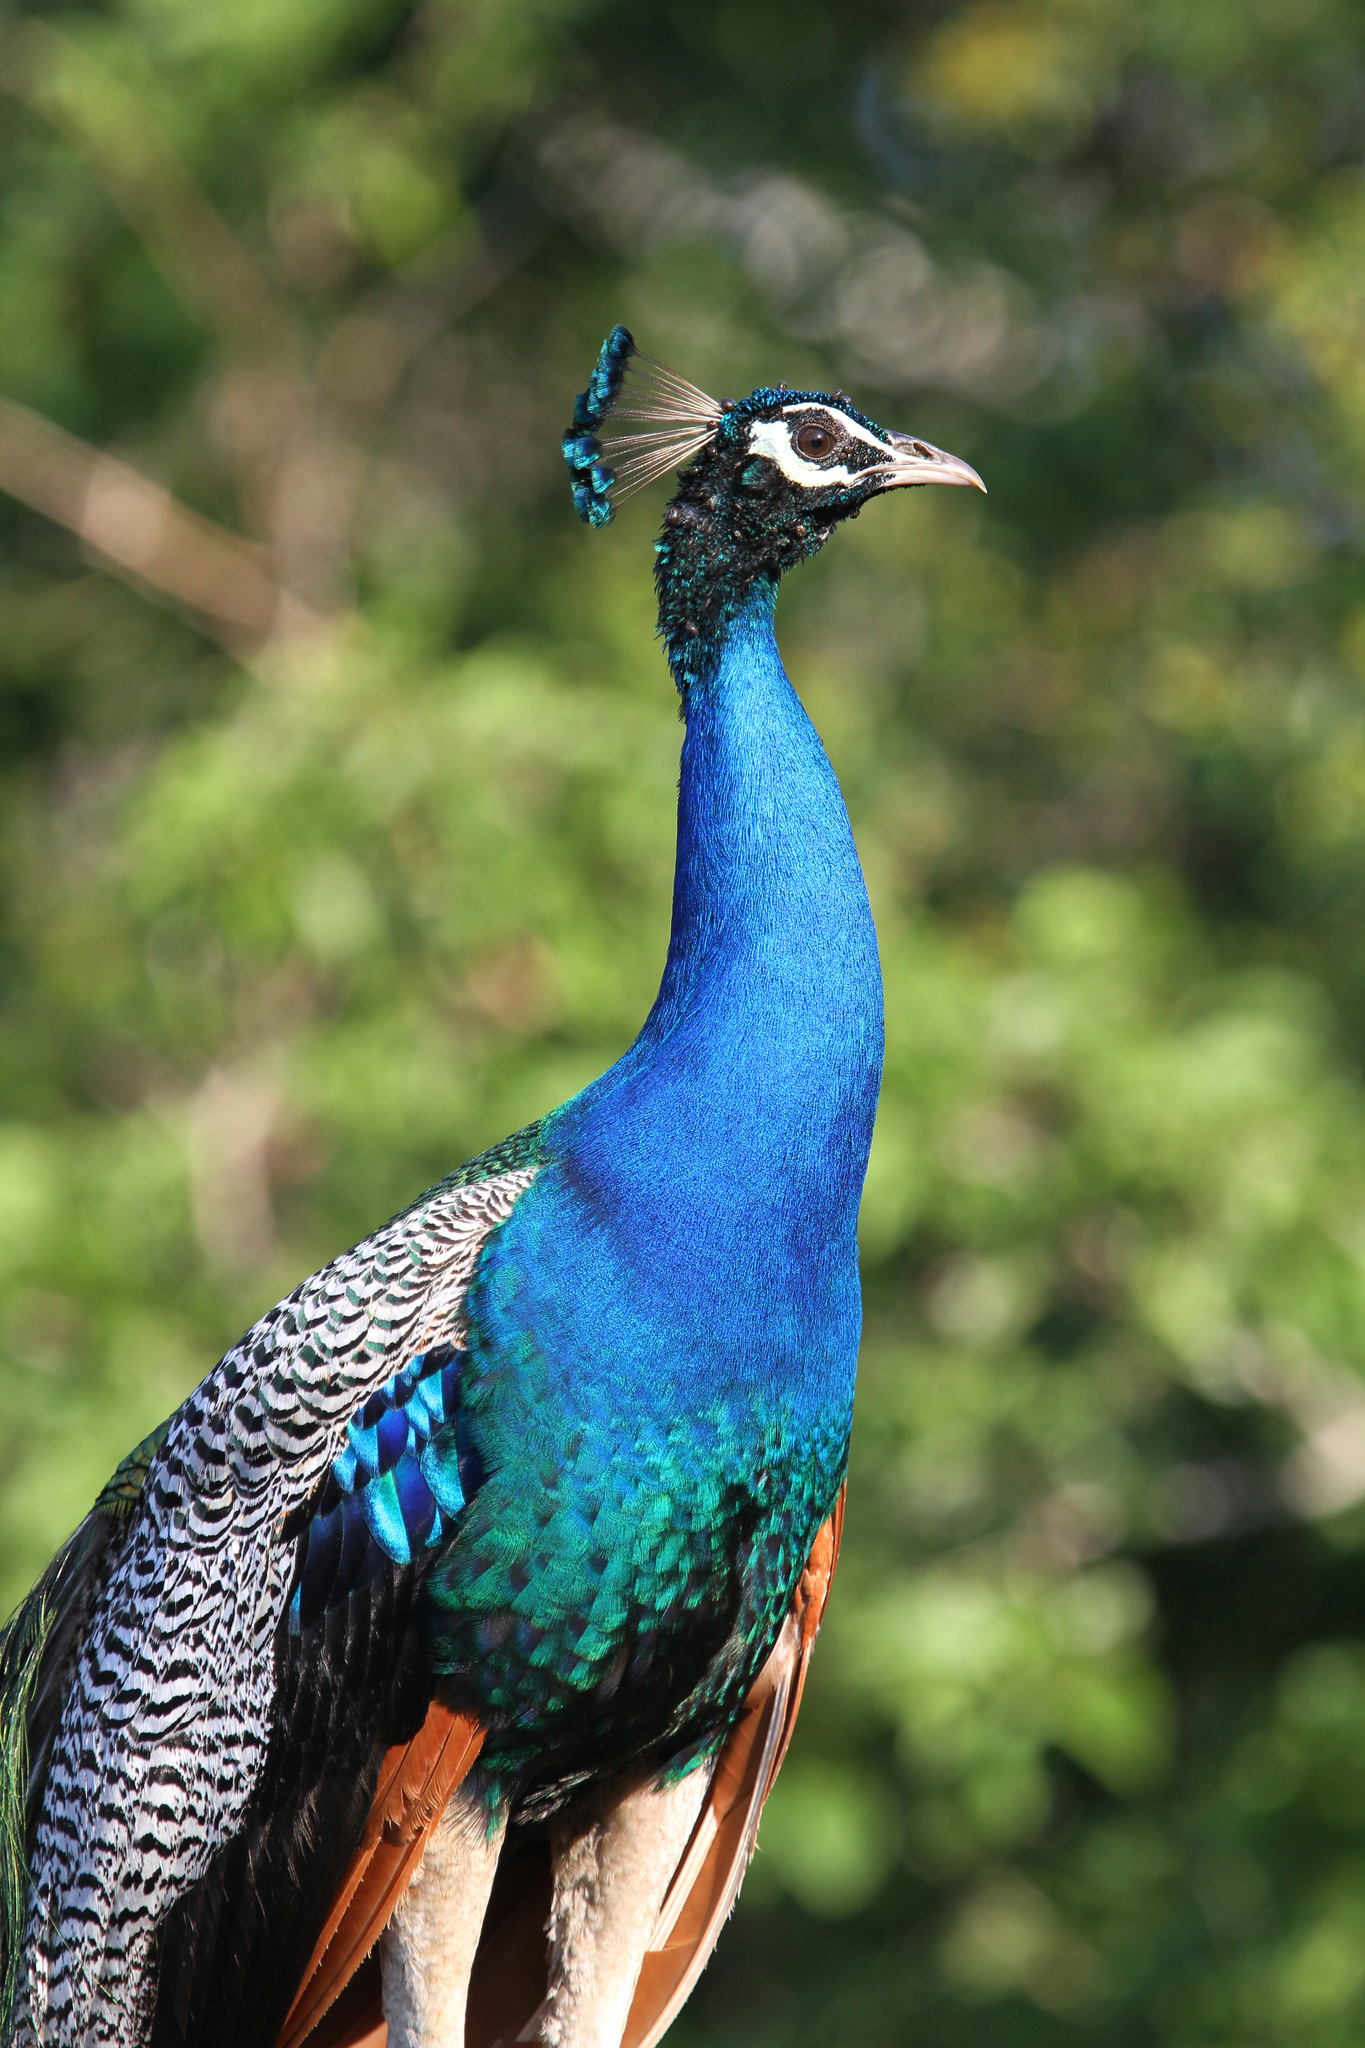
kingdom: Animalia
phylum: Chordata
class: Aves
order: Galliformes
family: Phasianidae
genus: Pavo
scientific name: Pavo cristatus
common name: Indian peafowl
